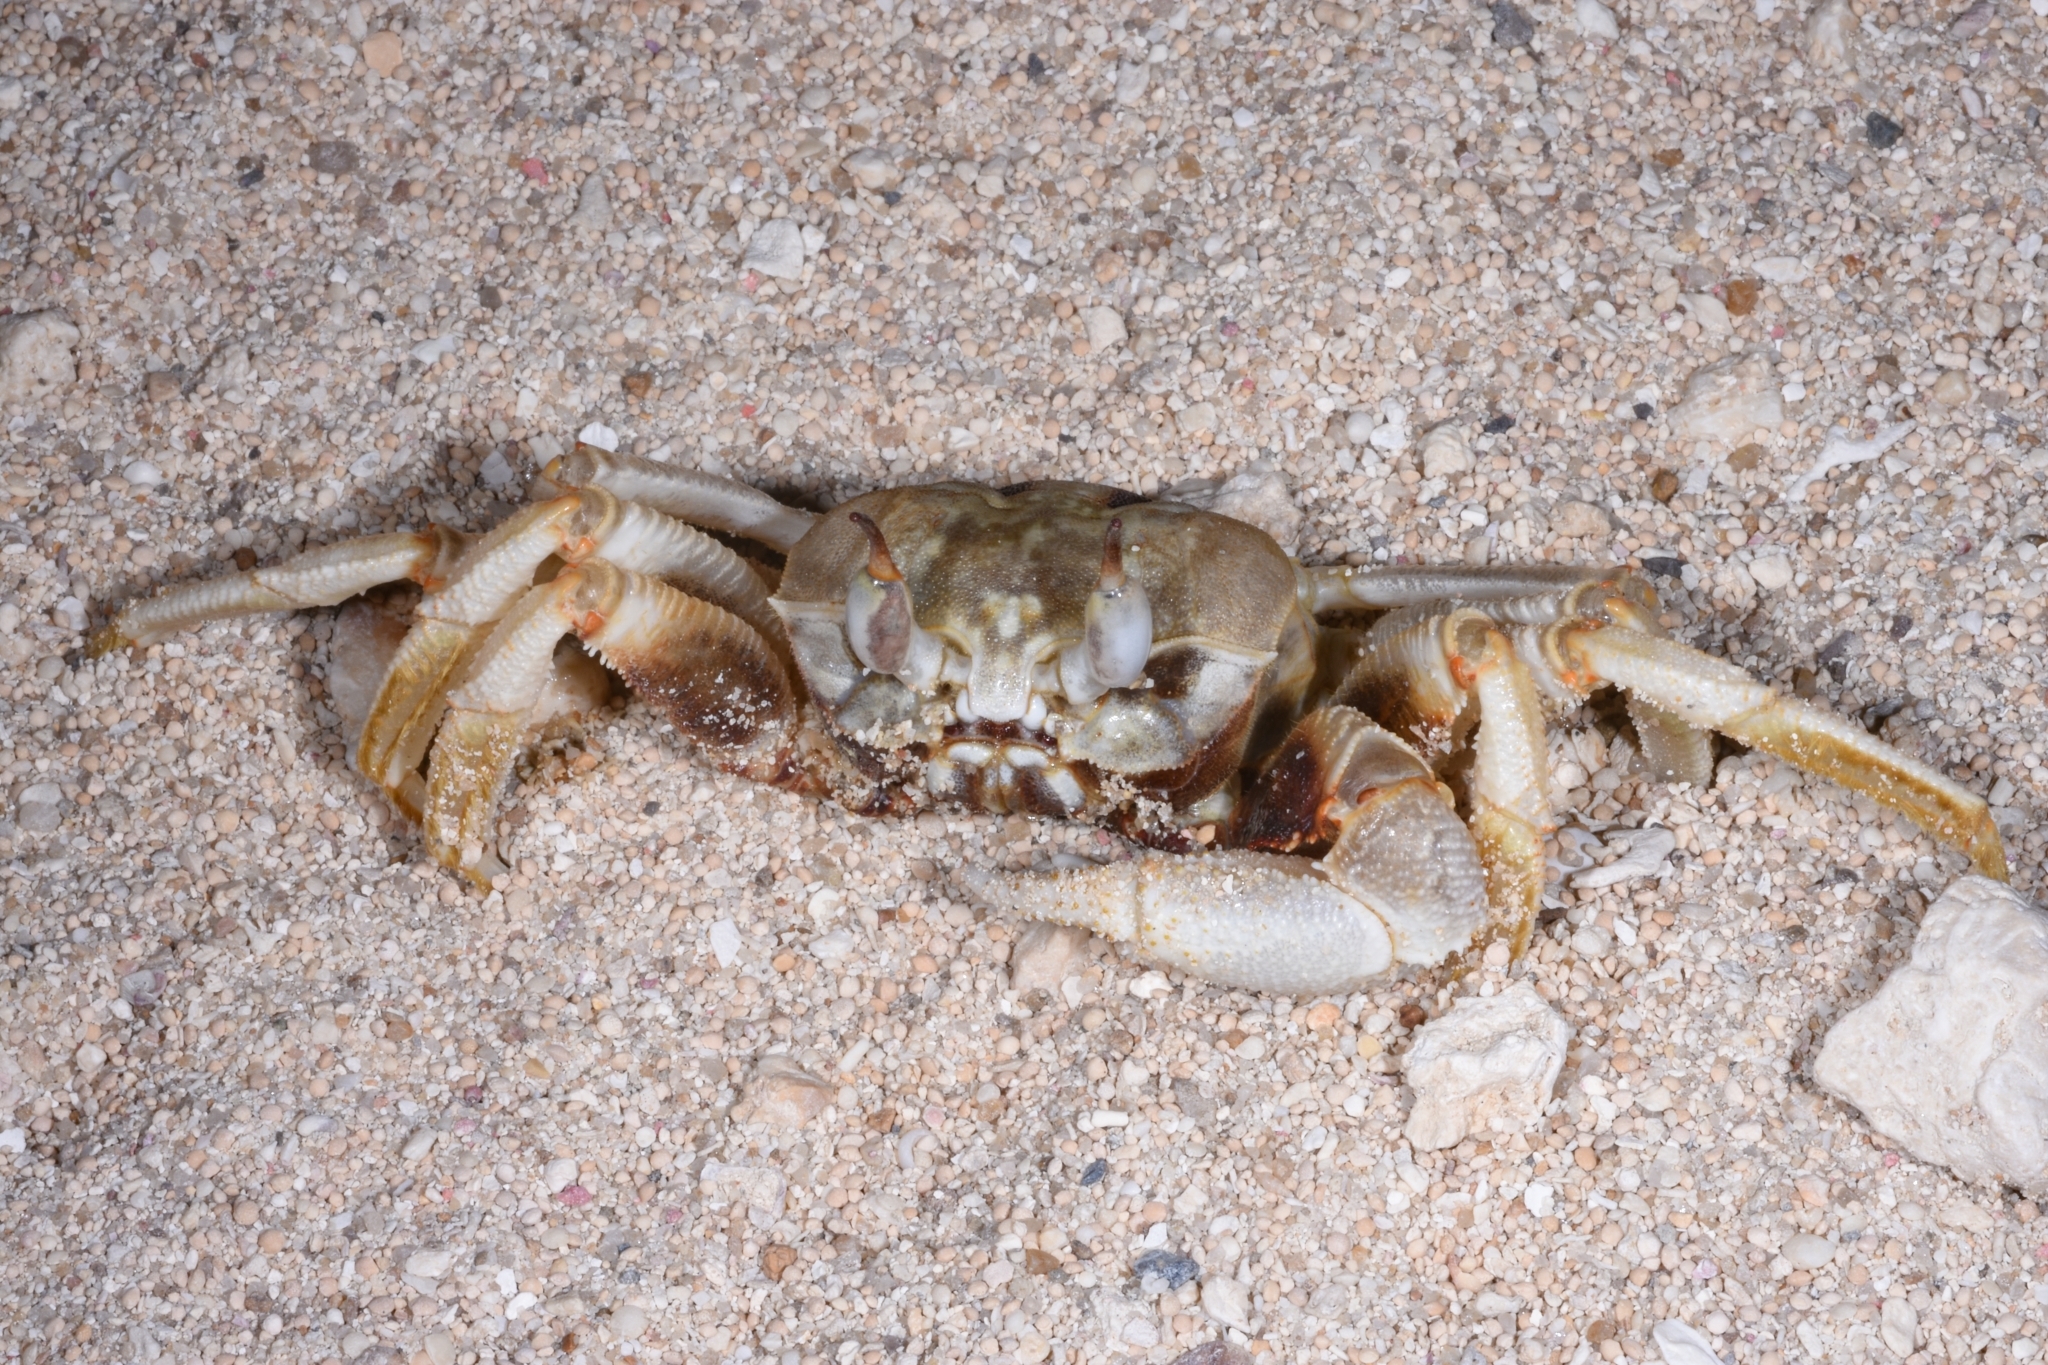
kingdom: Animalia
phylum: Arthropoda
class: Malacostraca
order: Decapoda
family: Ocypodidae
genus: Ocypode
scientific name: Ocypode ceratophthalmus
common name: Indo-pacific ghost crab
